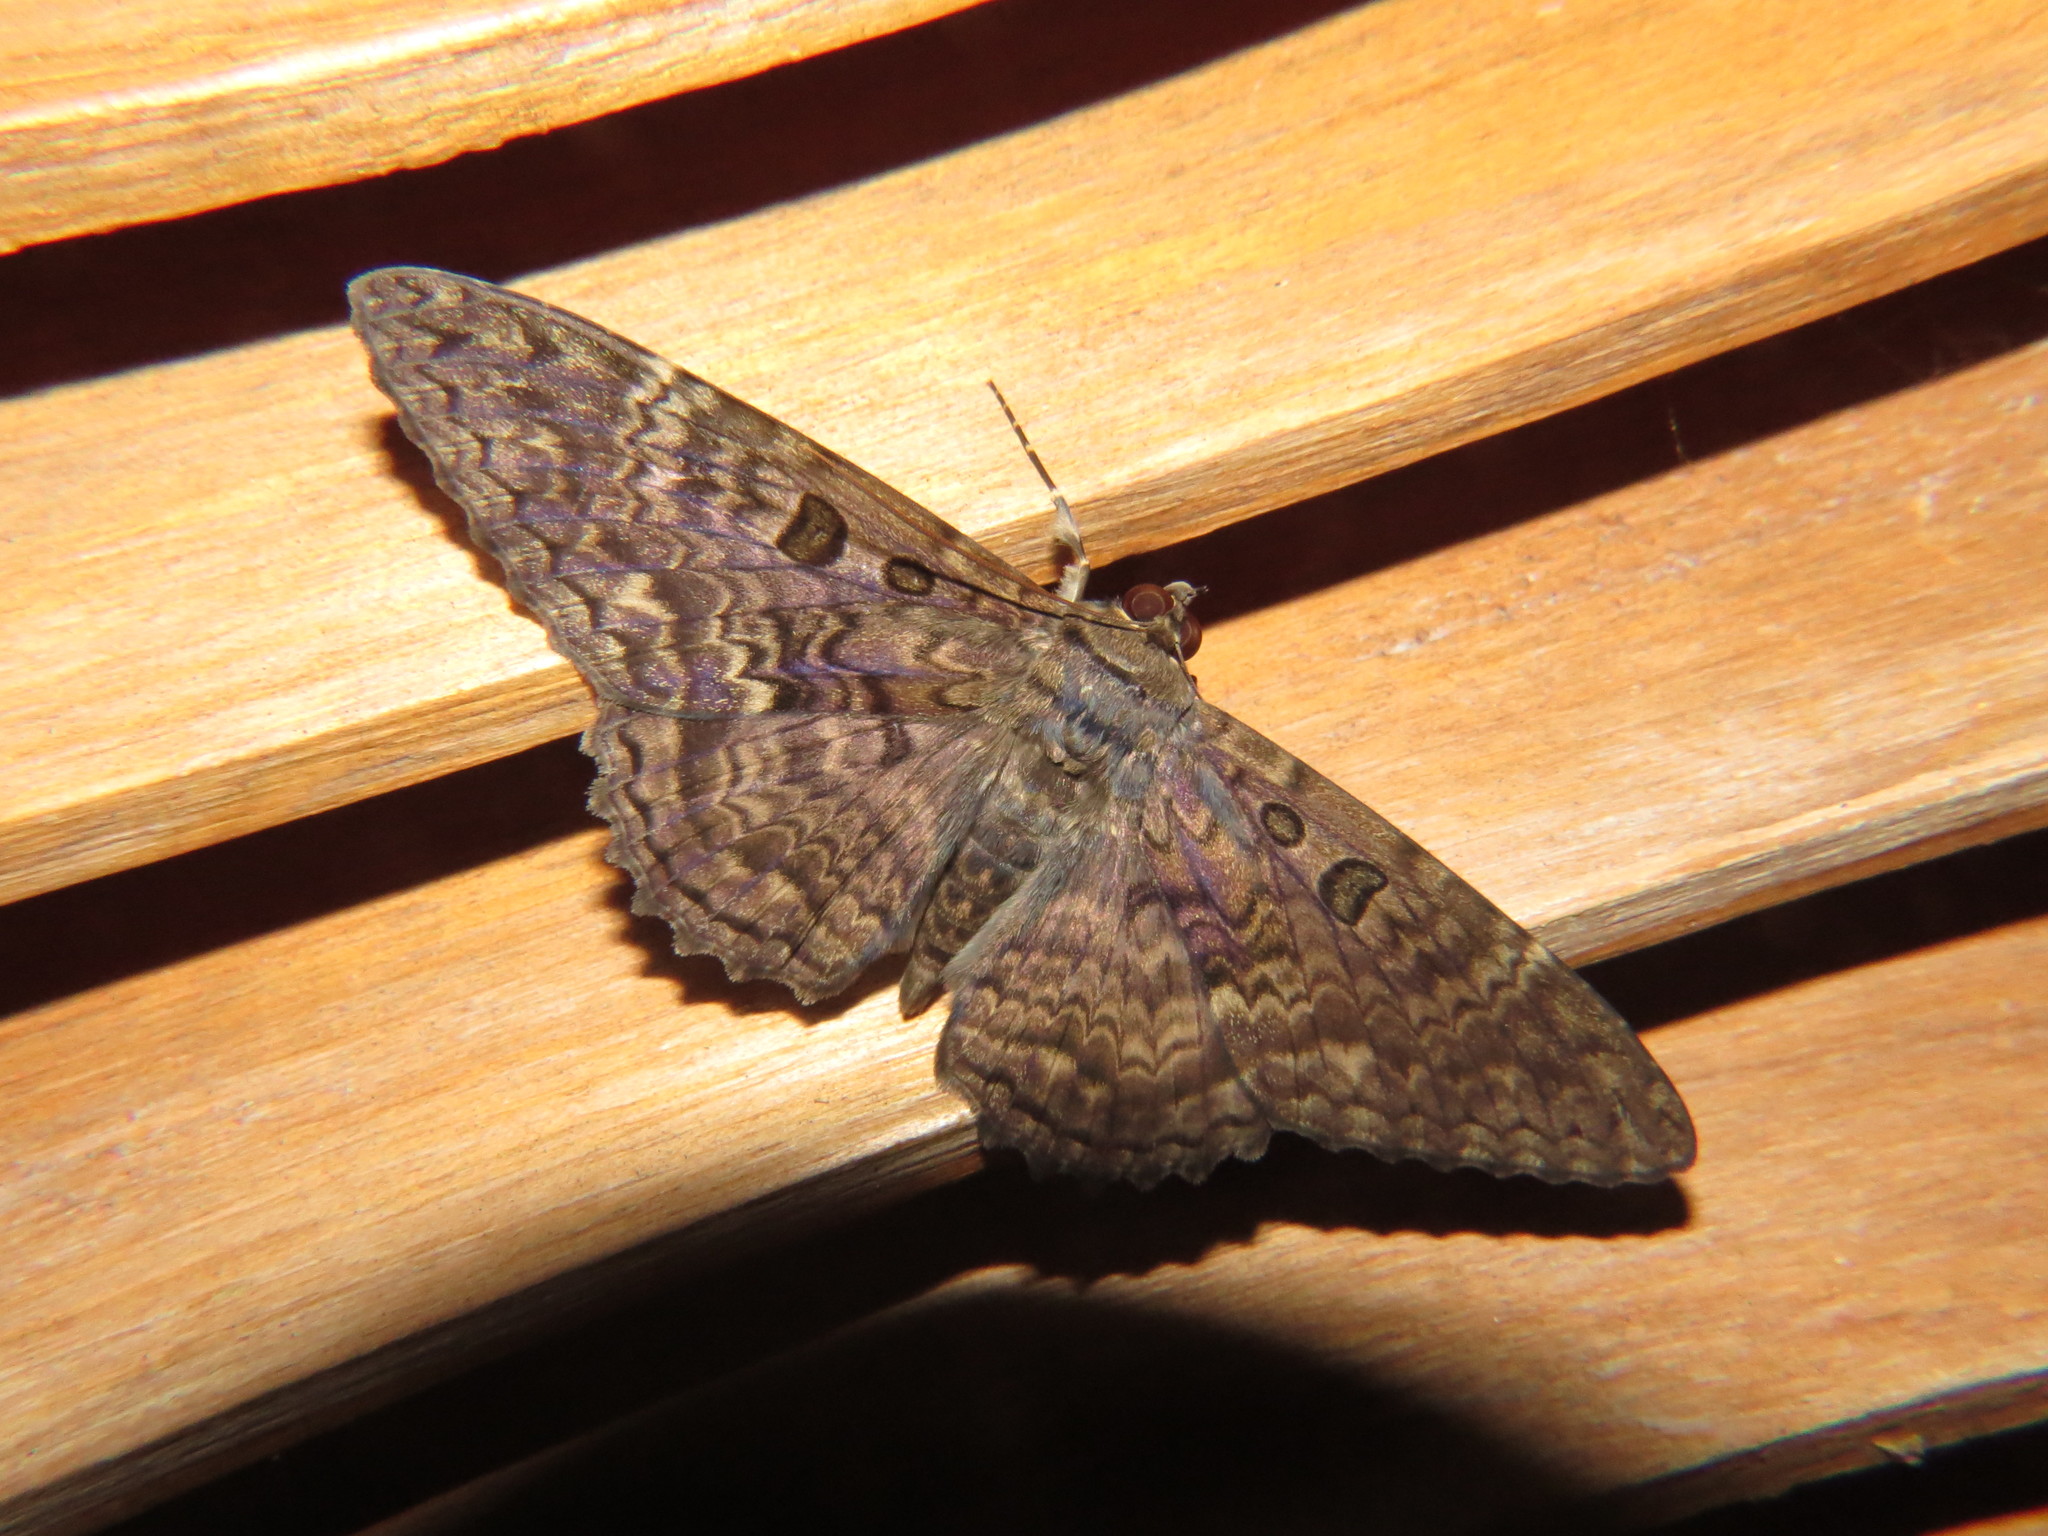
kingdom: Animalia
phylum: Arthropoda
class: Insecta
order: Lepidoptera
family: Erebidae
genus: Feigeria
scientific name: Feigeria scops
